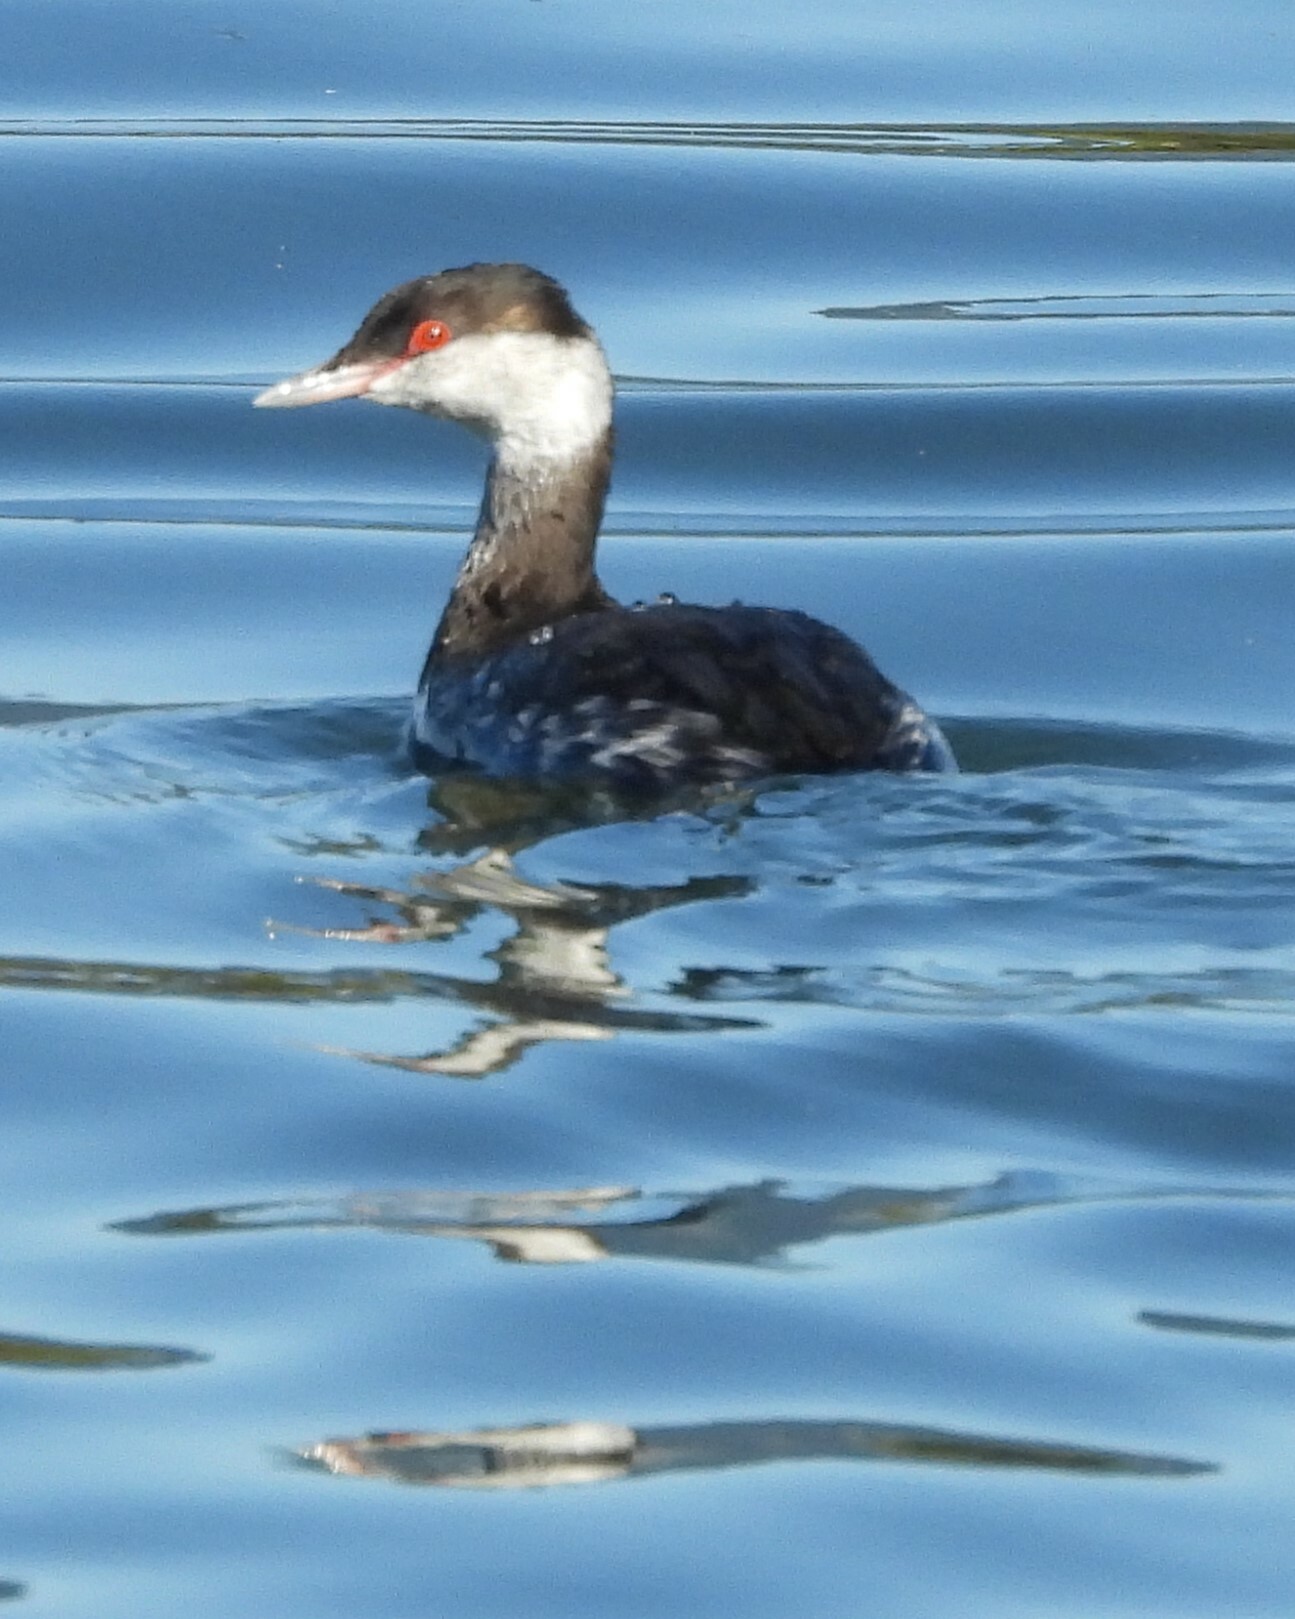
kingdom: Animalia
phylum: Chordata
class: Aves
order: Podicipediformes
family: Podicipedidae
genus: Podiceps
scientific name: Podiceps auritus
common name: Horned grebe
